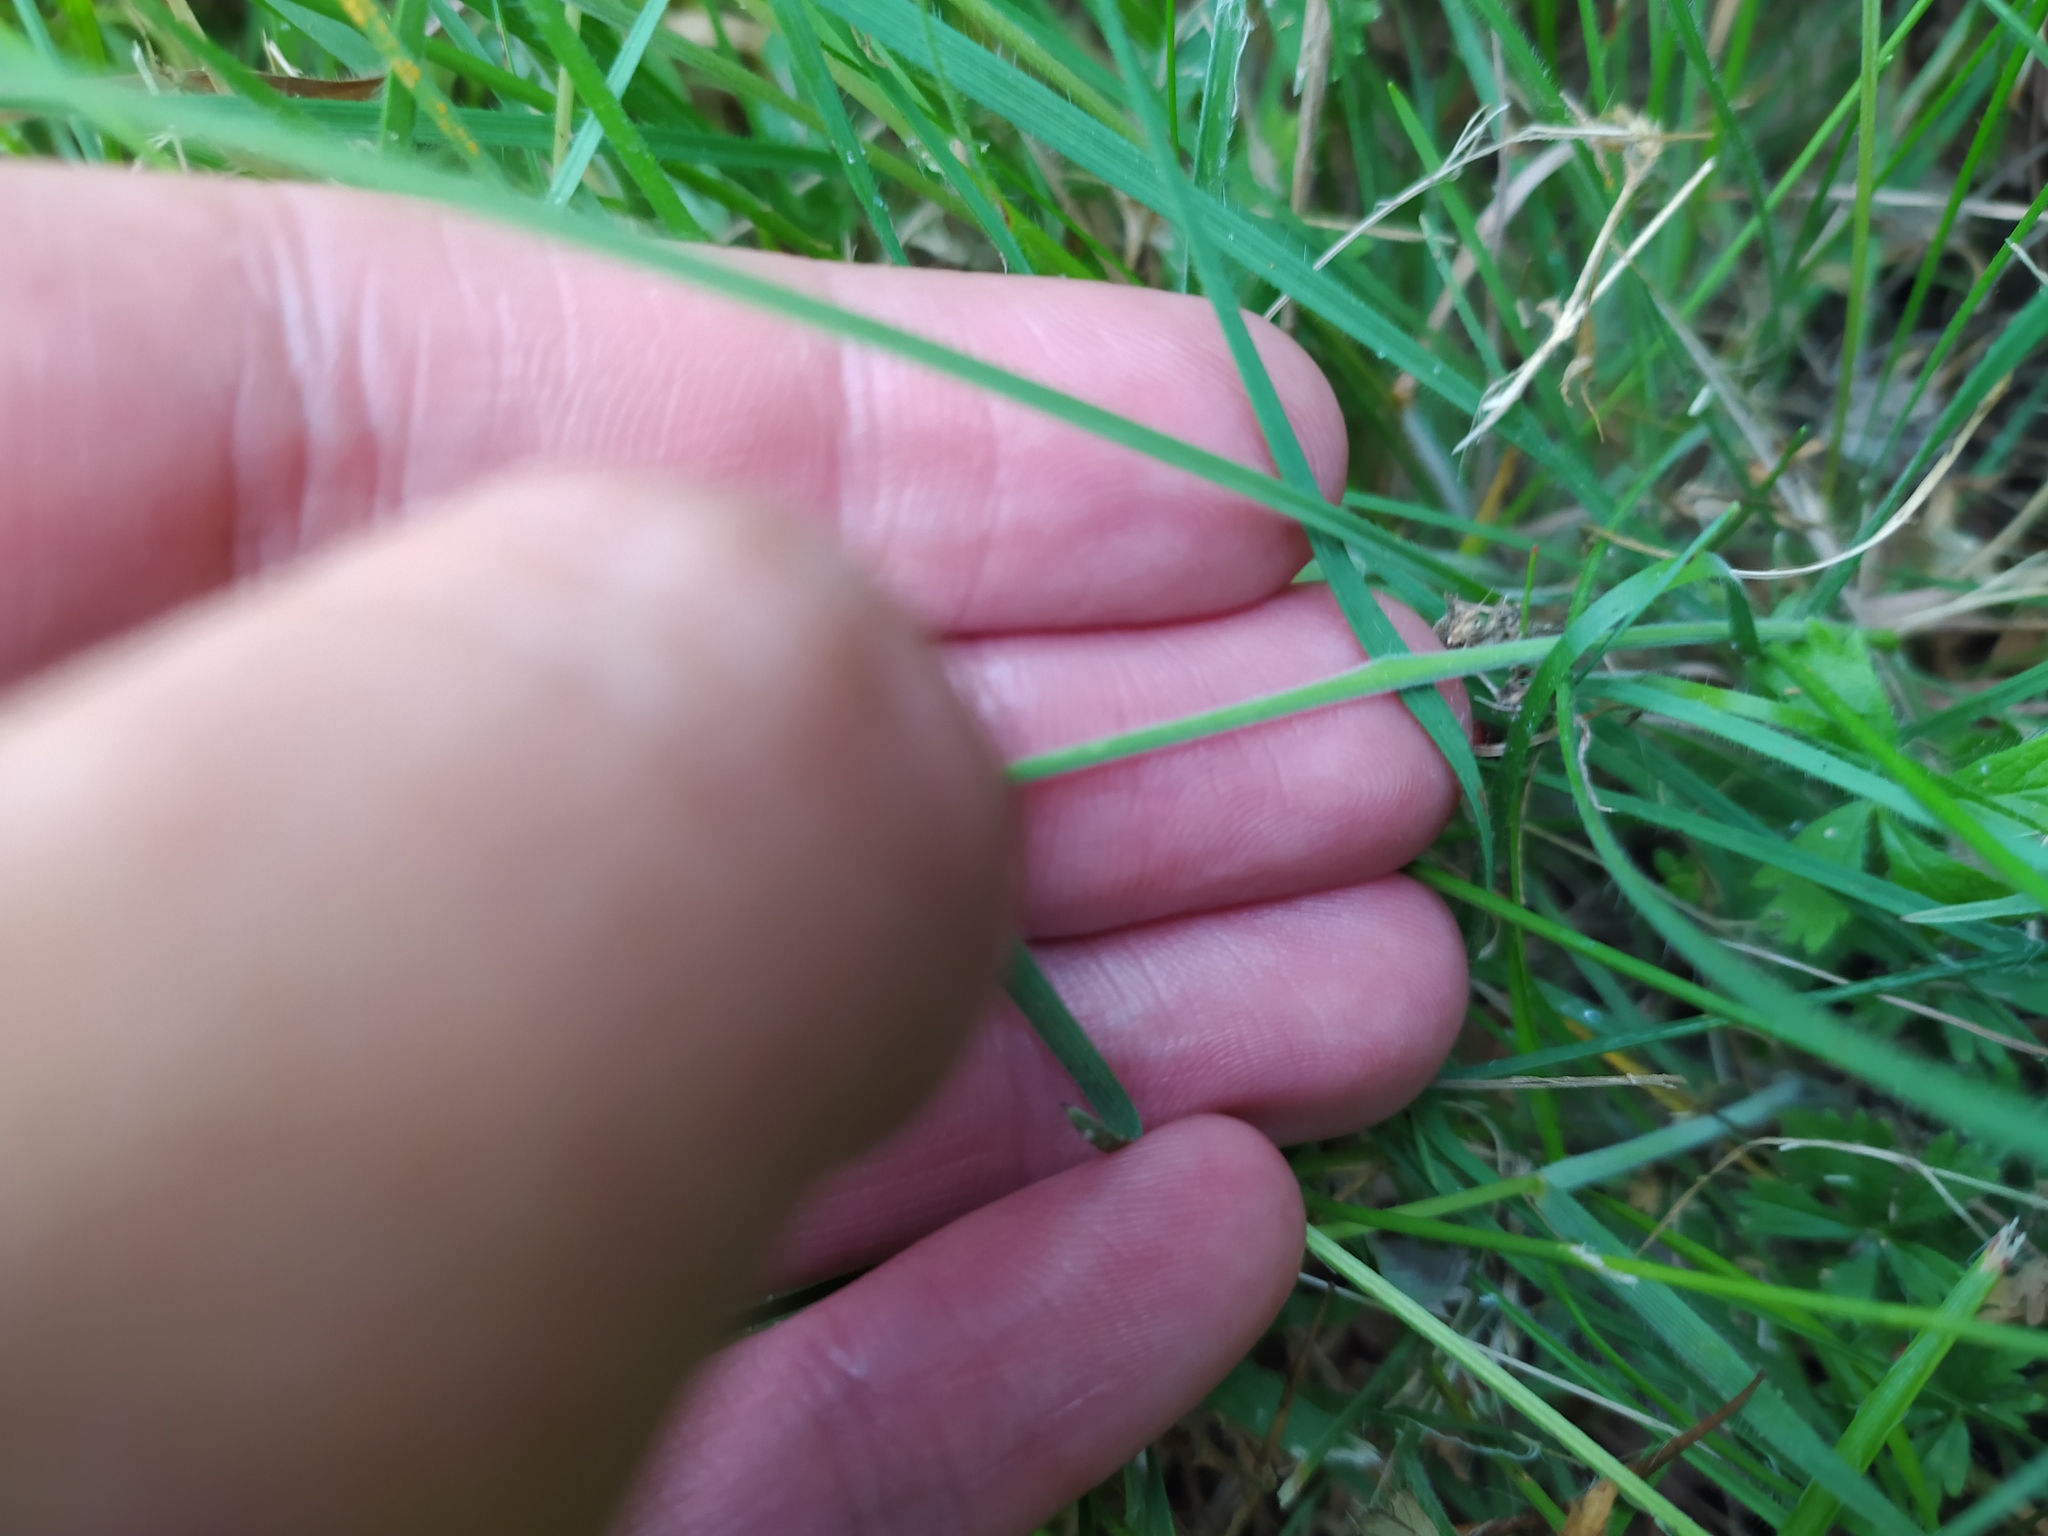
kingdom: Plantae
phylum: Tracheophyta
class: Liliopsida
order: Poales
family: Poaceae
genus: Koeleria
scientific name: Koeleria macrantha
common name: Crested hair-grass
